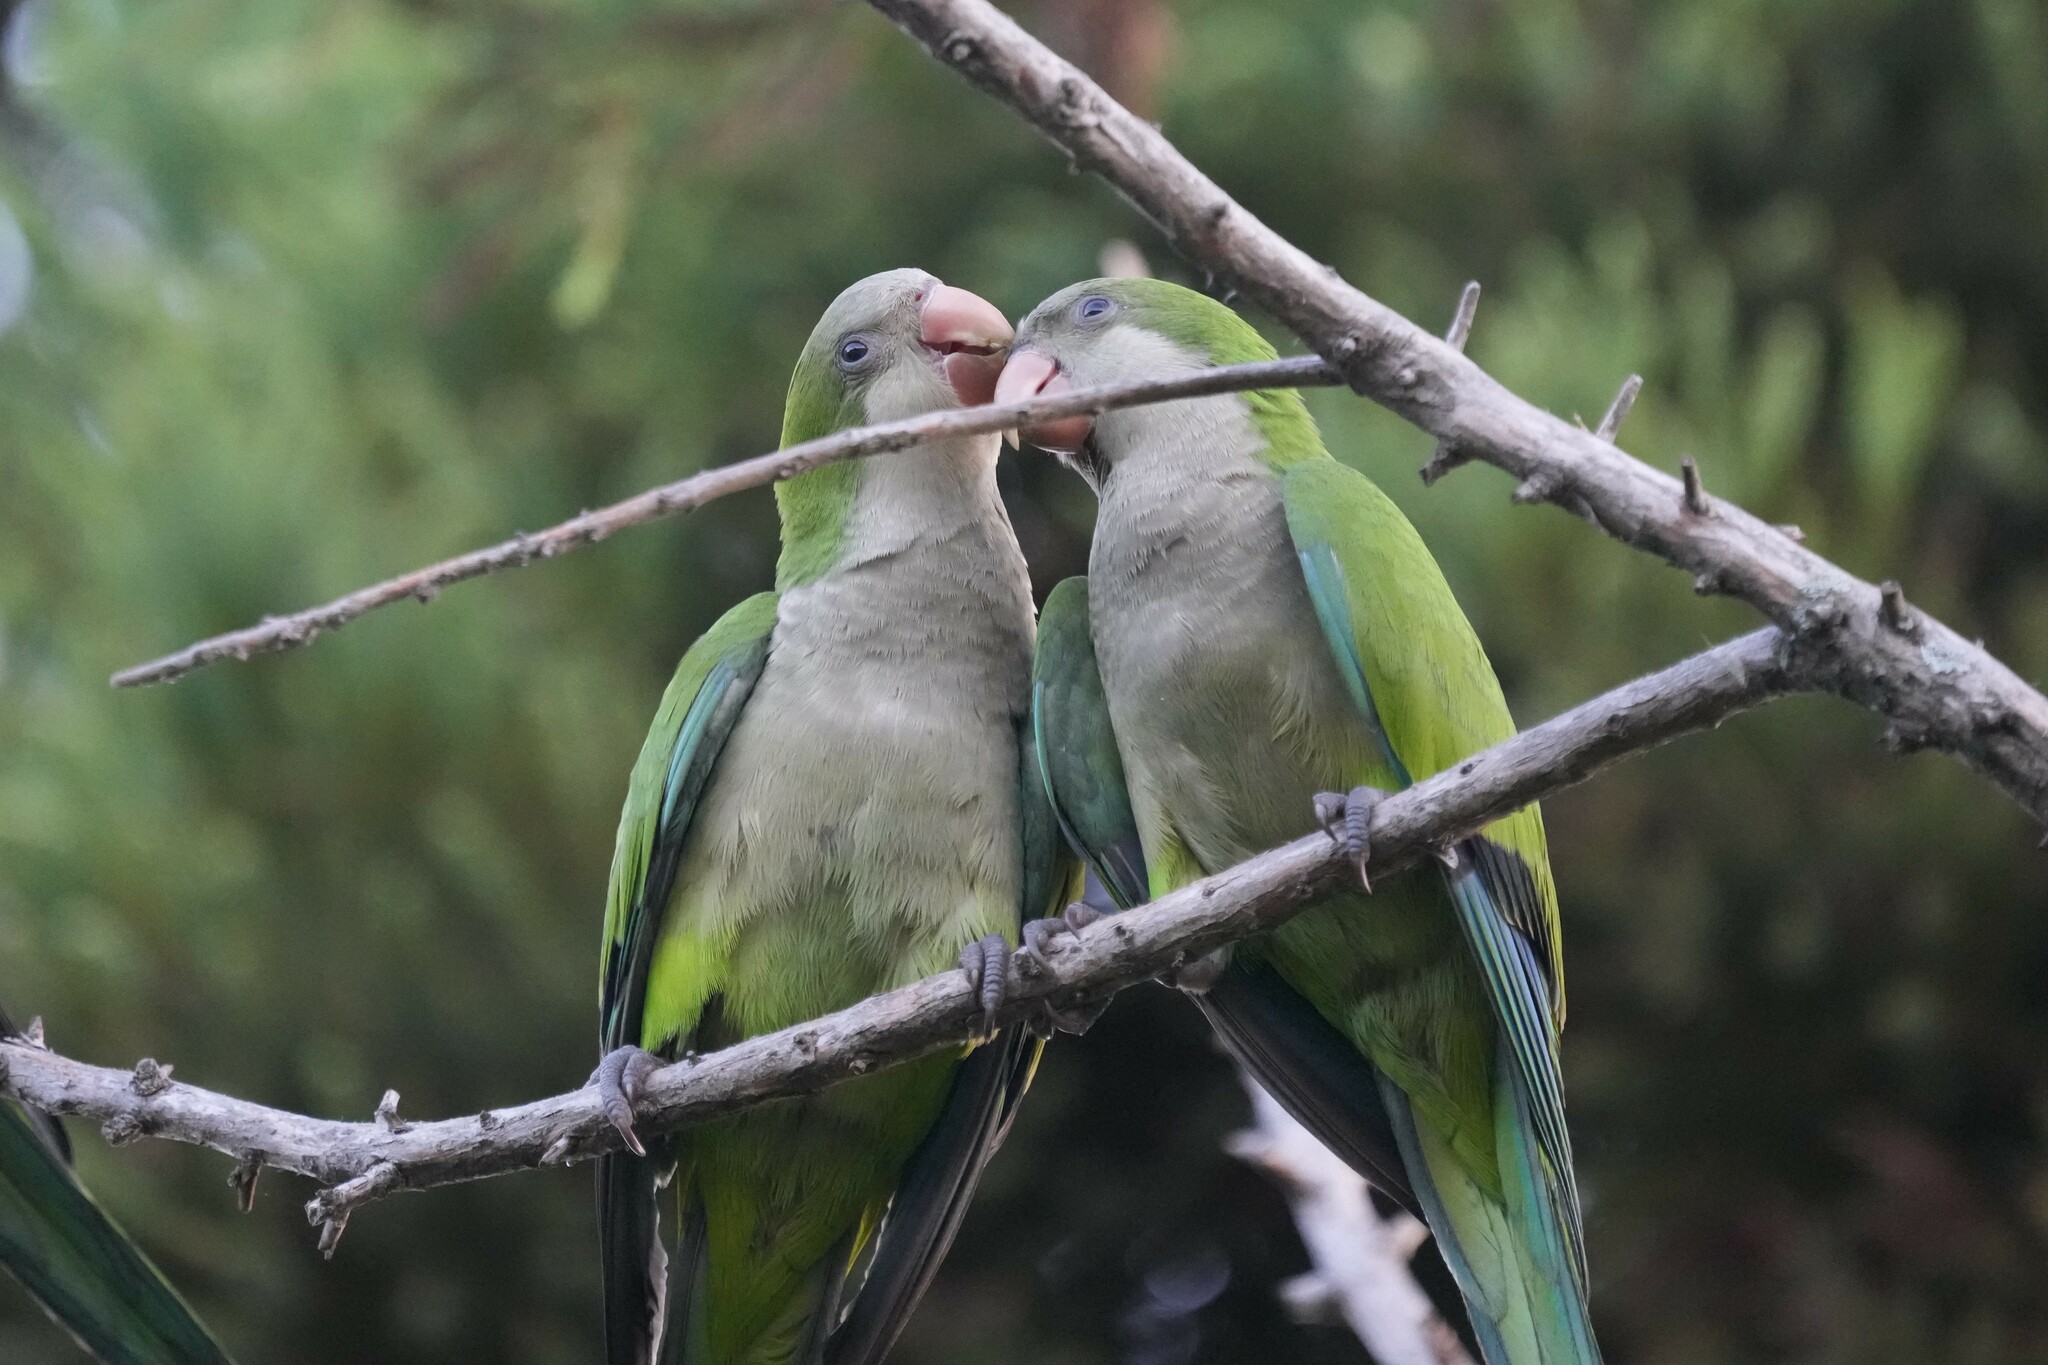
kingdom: Animalia
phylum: Chordata
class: Aves
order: Psittaciformes
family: Psittacidae
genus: Myiopsitta
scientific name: Myiopsitta monachus
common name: Monk parakeet
